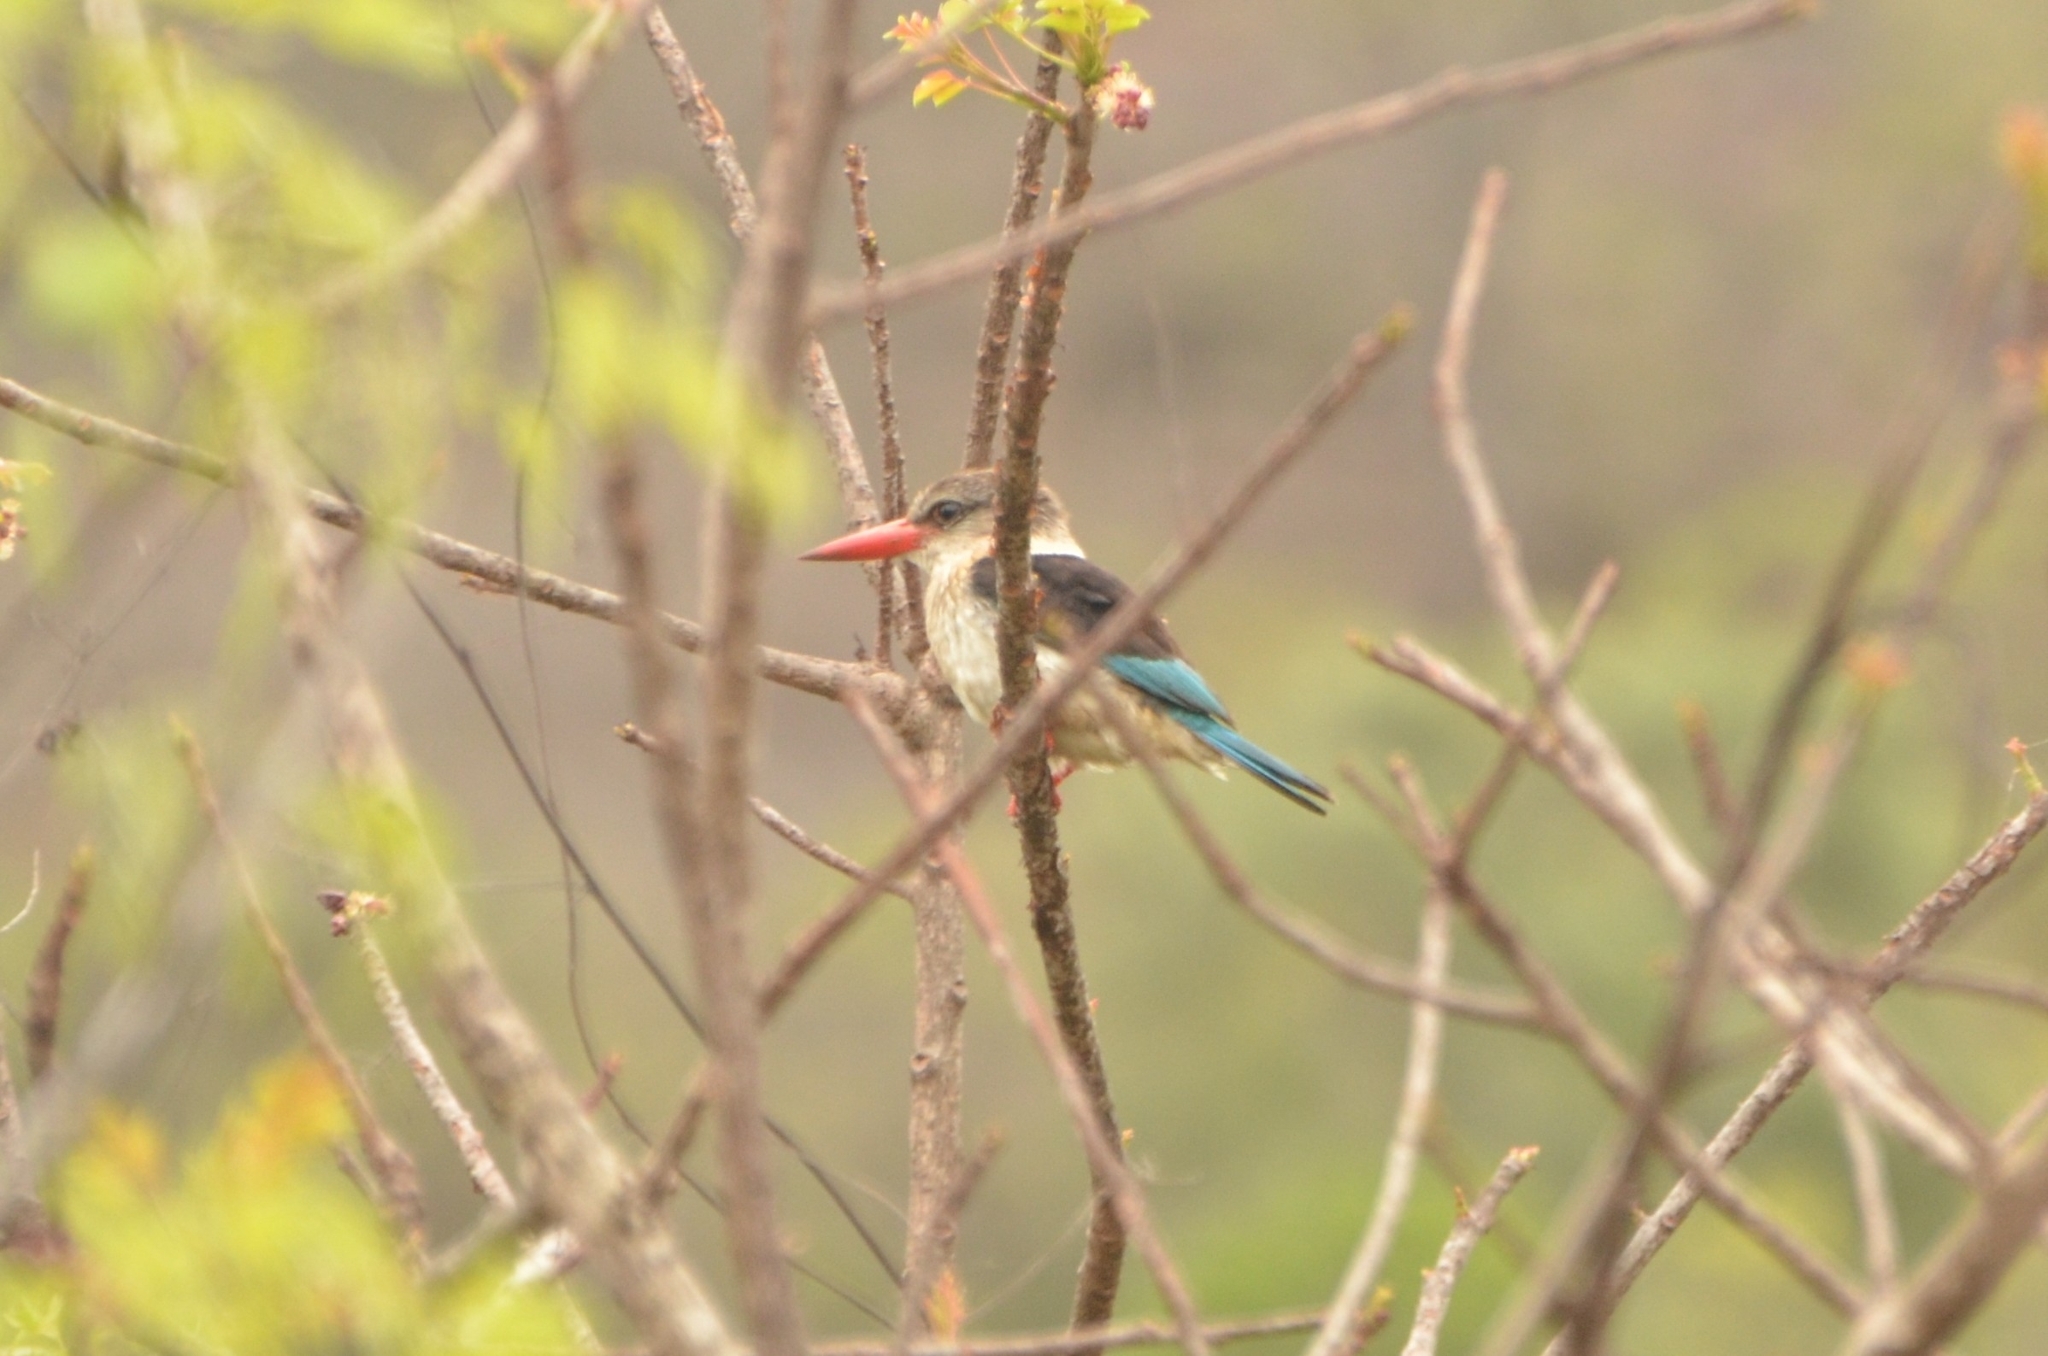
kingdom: Animalia
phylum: Chordata
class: Aves
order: Coraciiformes
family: Alcedinidae
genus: Halcyon
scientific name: Halcyon albiventris
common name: Brown-hooded kingfisher
